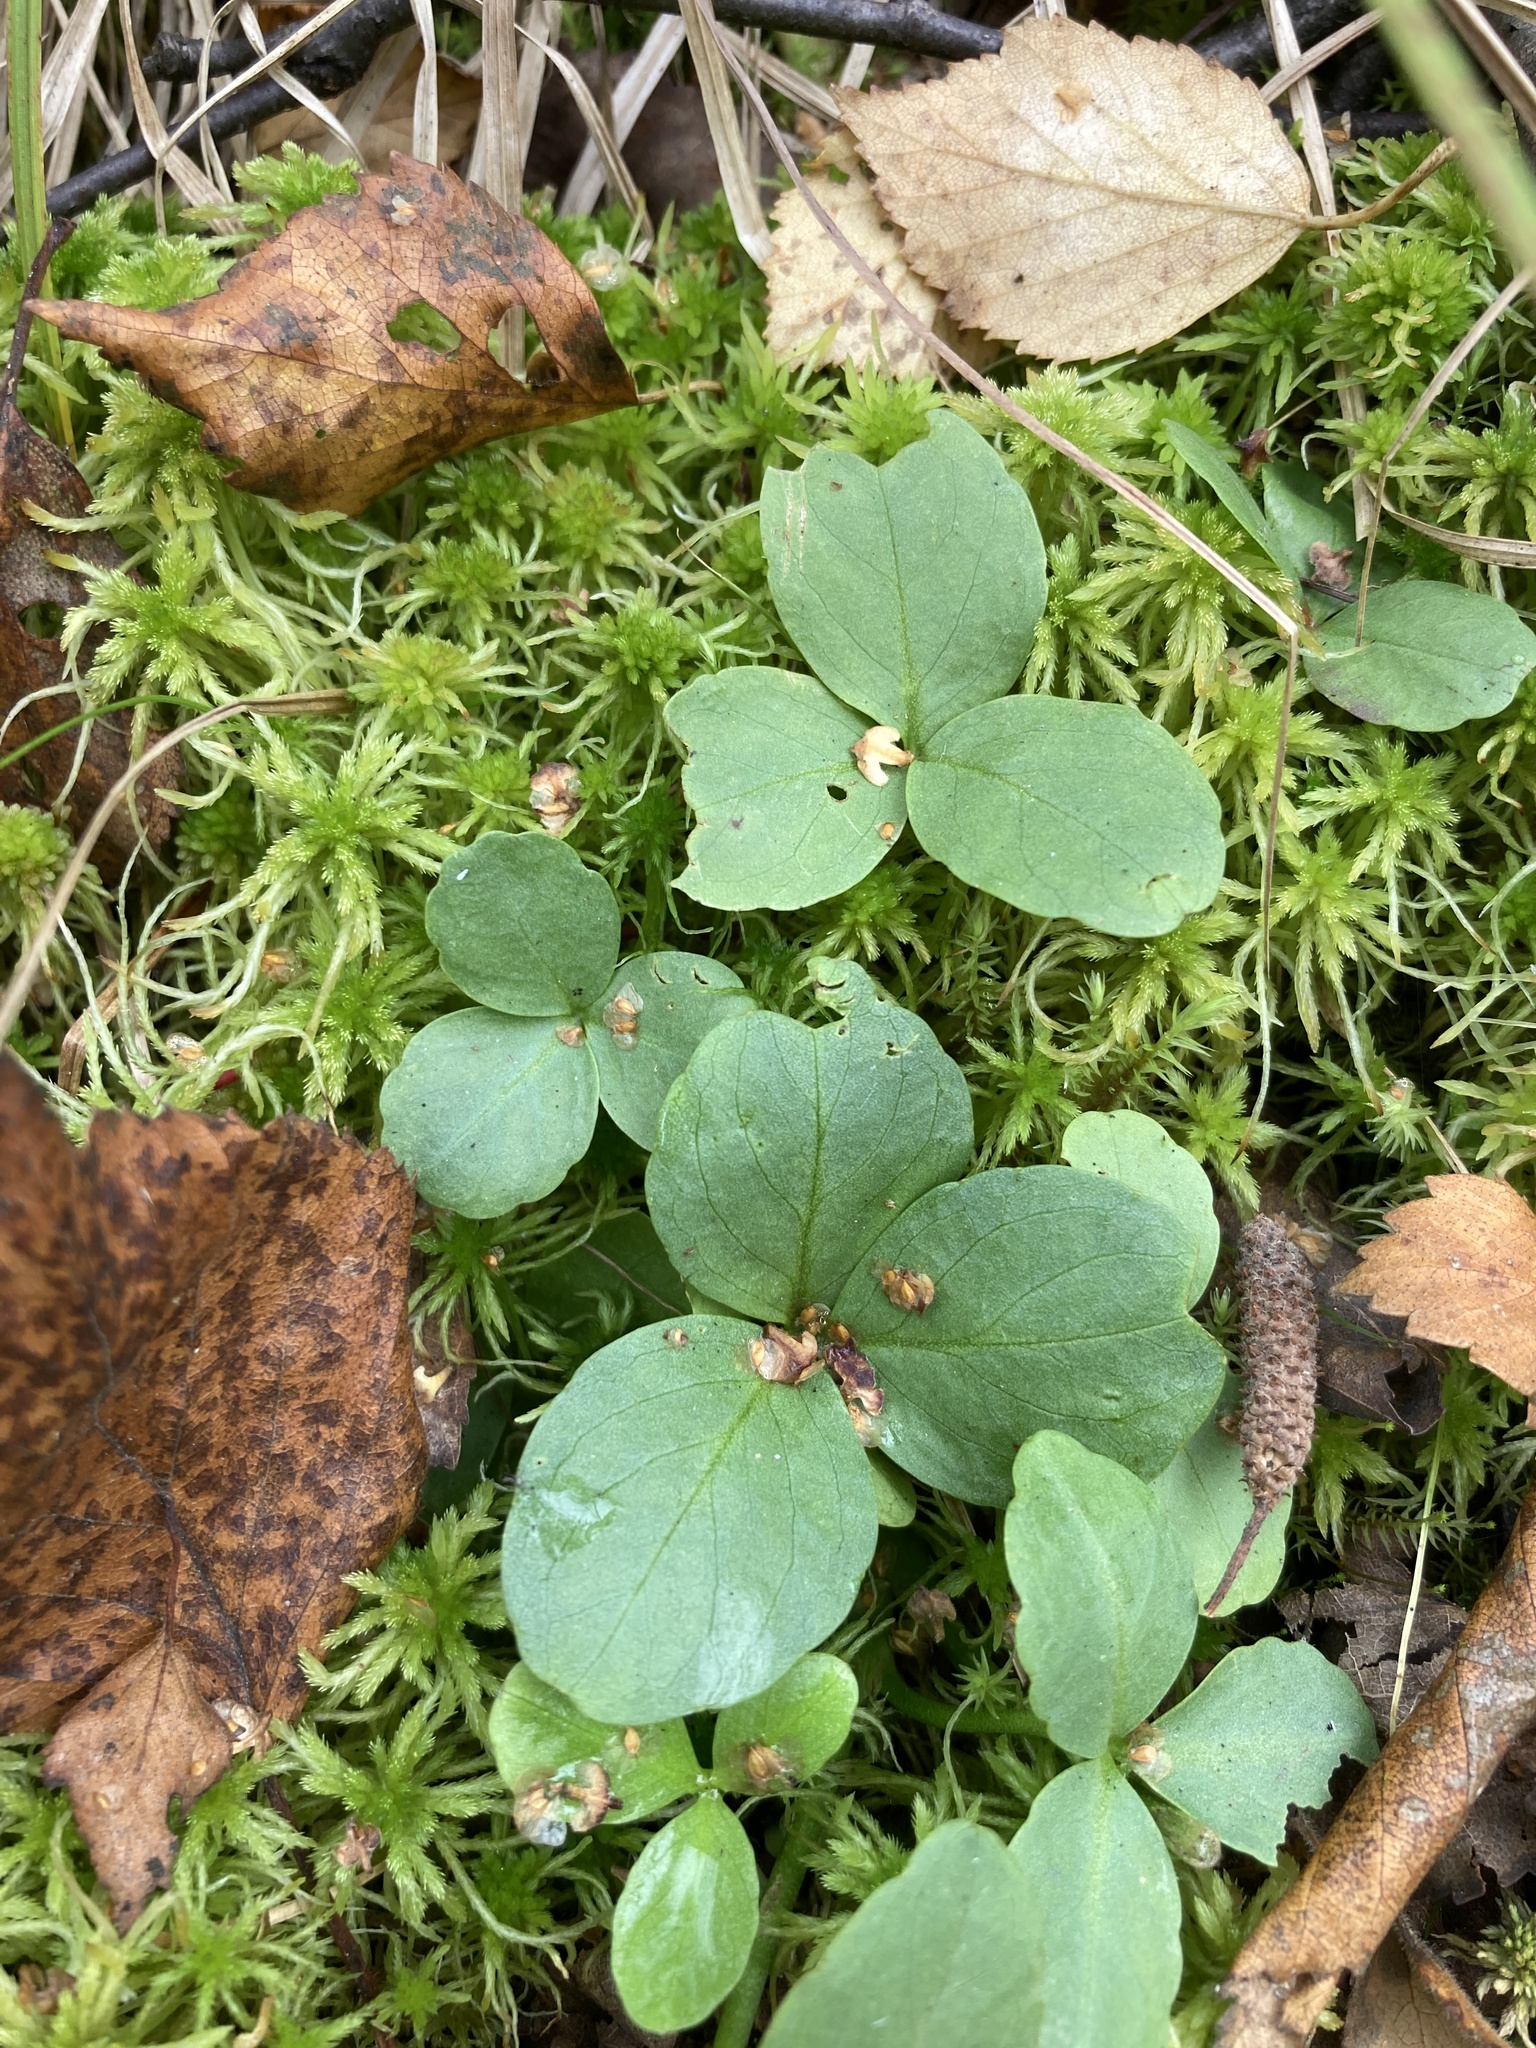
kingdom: Plantae
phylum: Tracheophyta
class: Magnoliopsida
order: Asterales
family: Menyanthaceae
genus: Menyanthes
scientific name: Menyanthes trifoliata
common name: Bogbean
